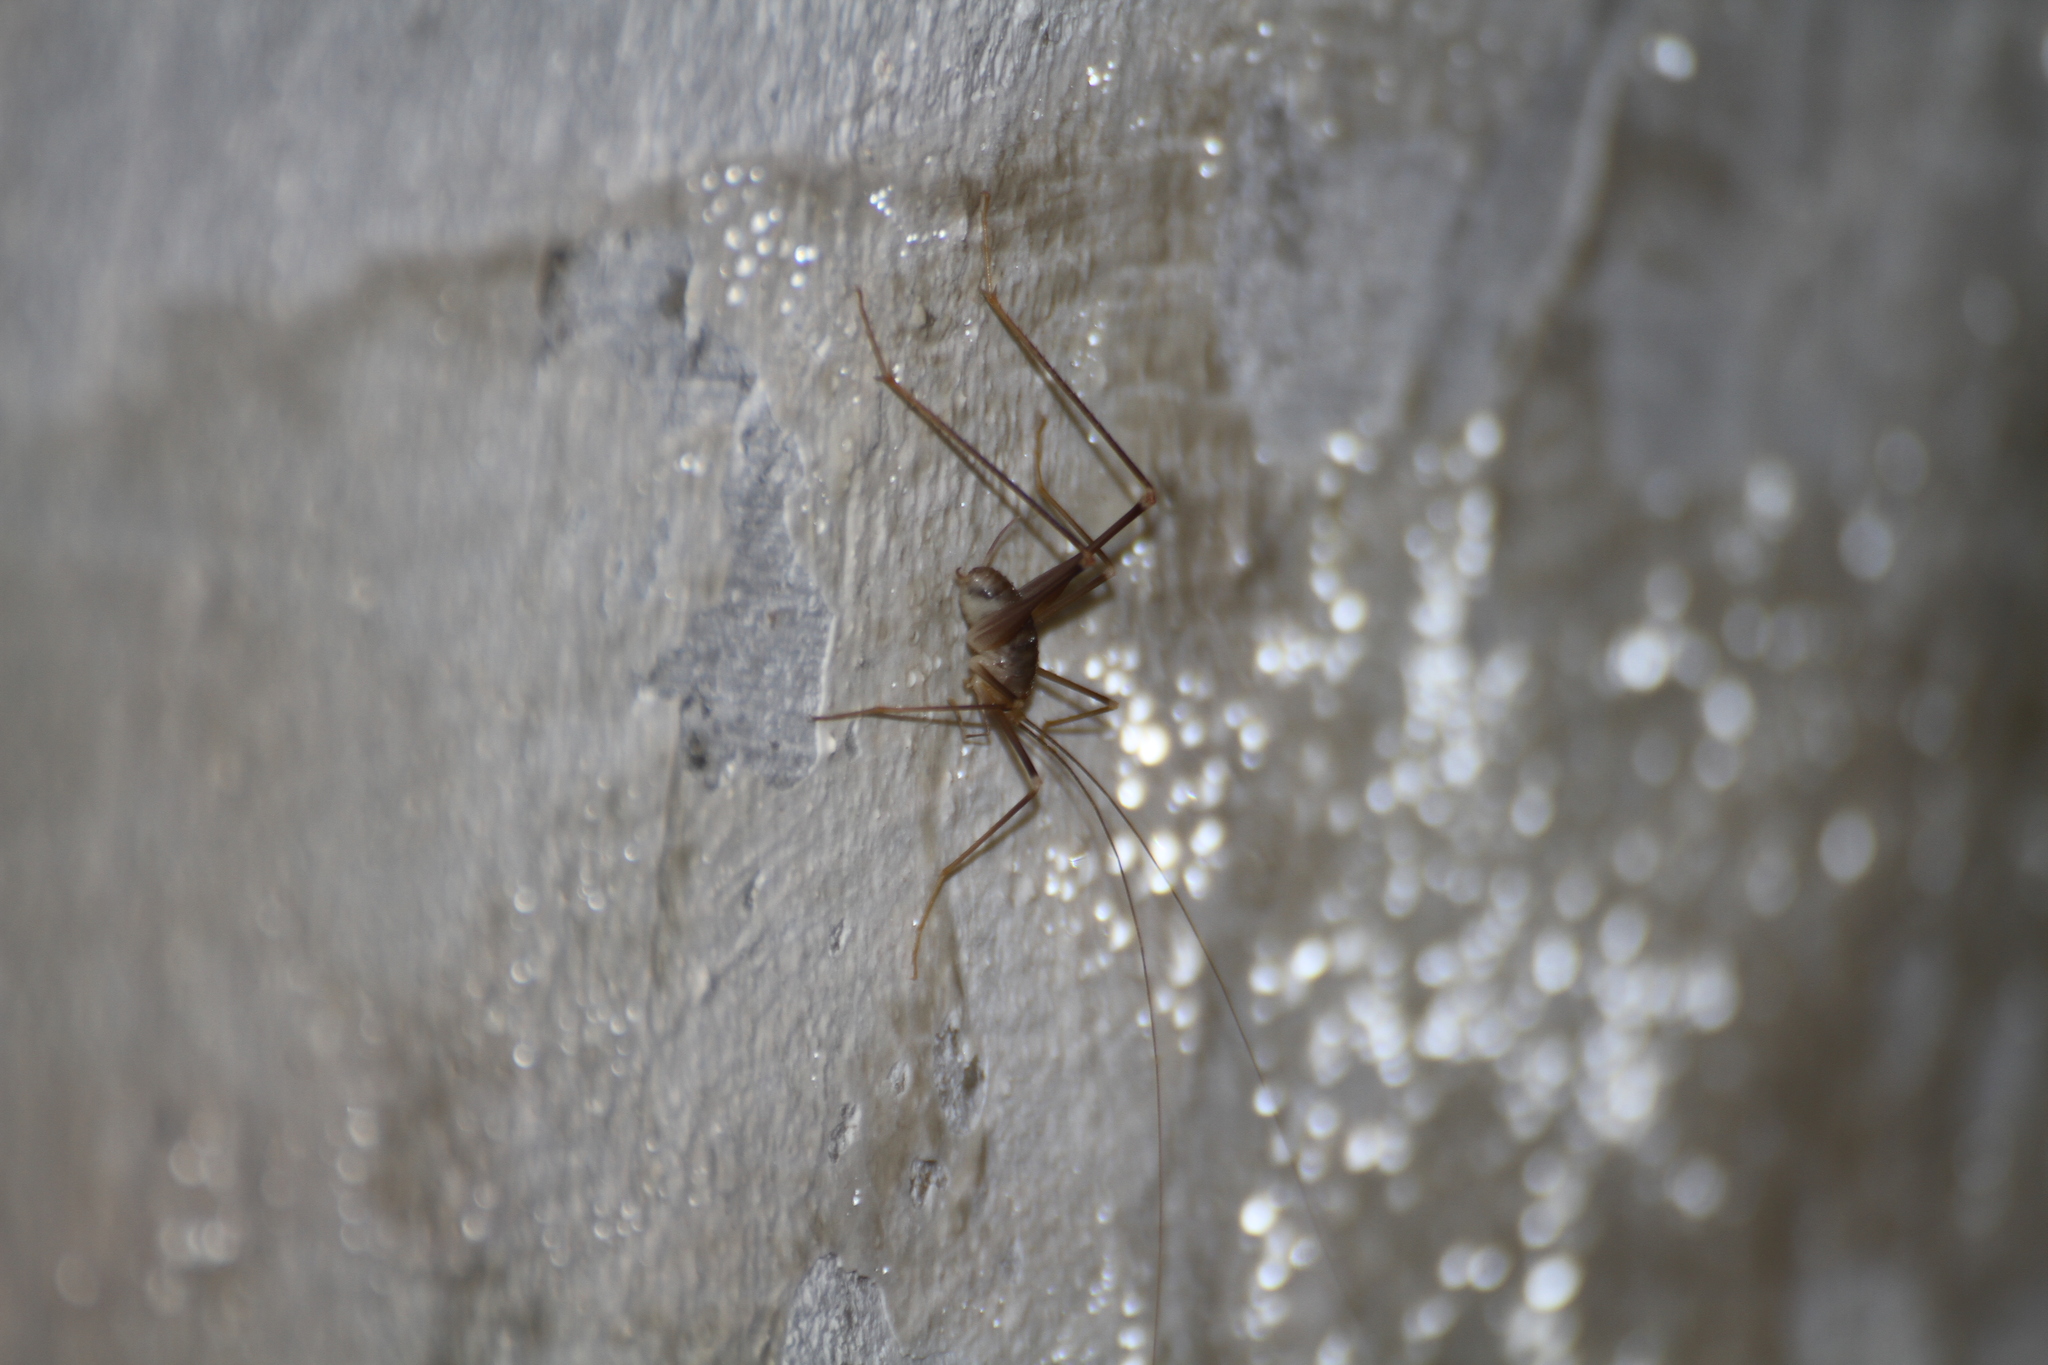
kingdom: Animalia
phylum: Arthropoda
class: Insecta
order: Orthoptera
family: Rhaphidophoridae
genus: Dolichopoda
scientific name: Dolichopoda azami
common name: Azam's cave-cricket
